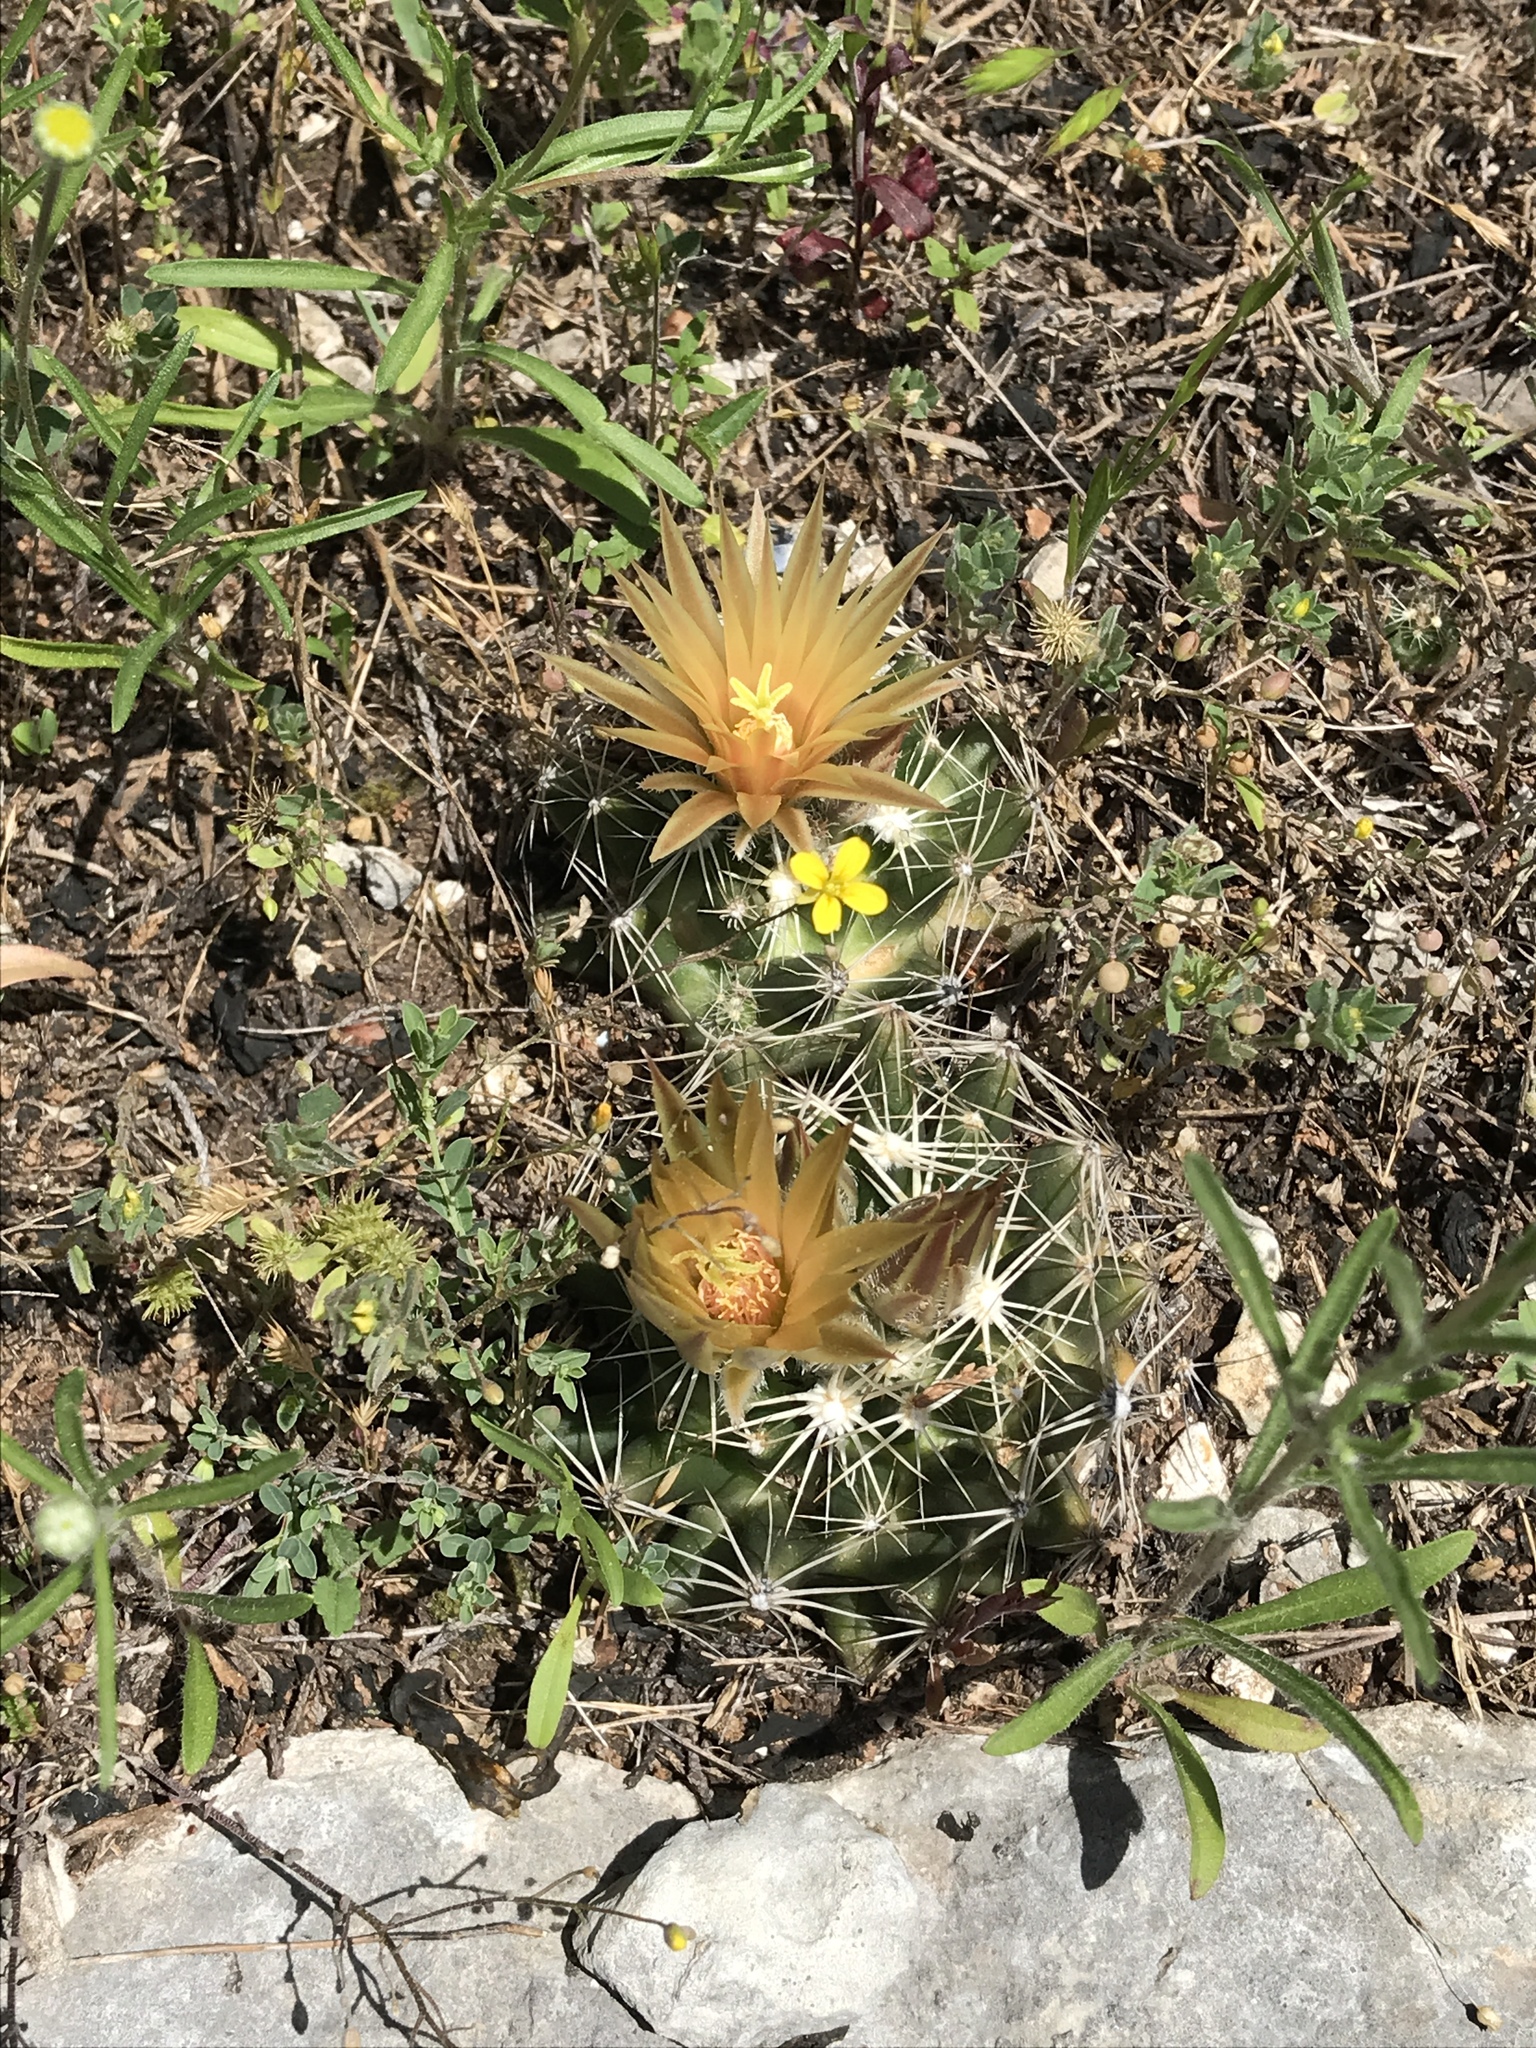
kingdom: Plantae
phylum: Tracheophyta
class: Magnoliopsida
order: Caryophyllales
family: Cactaceae
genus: Pelecyphora
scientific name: Pelecyphora missouriensis
